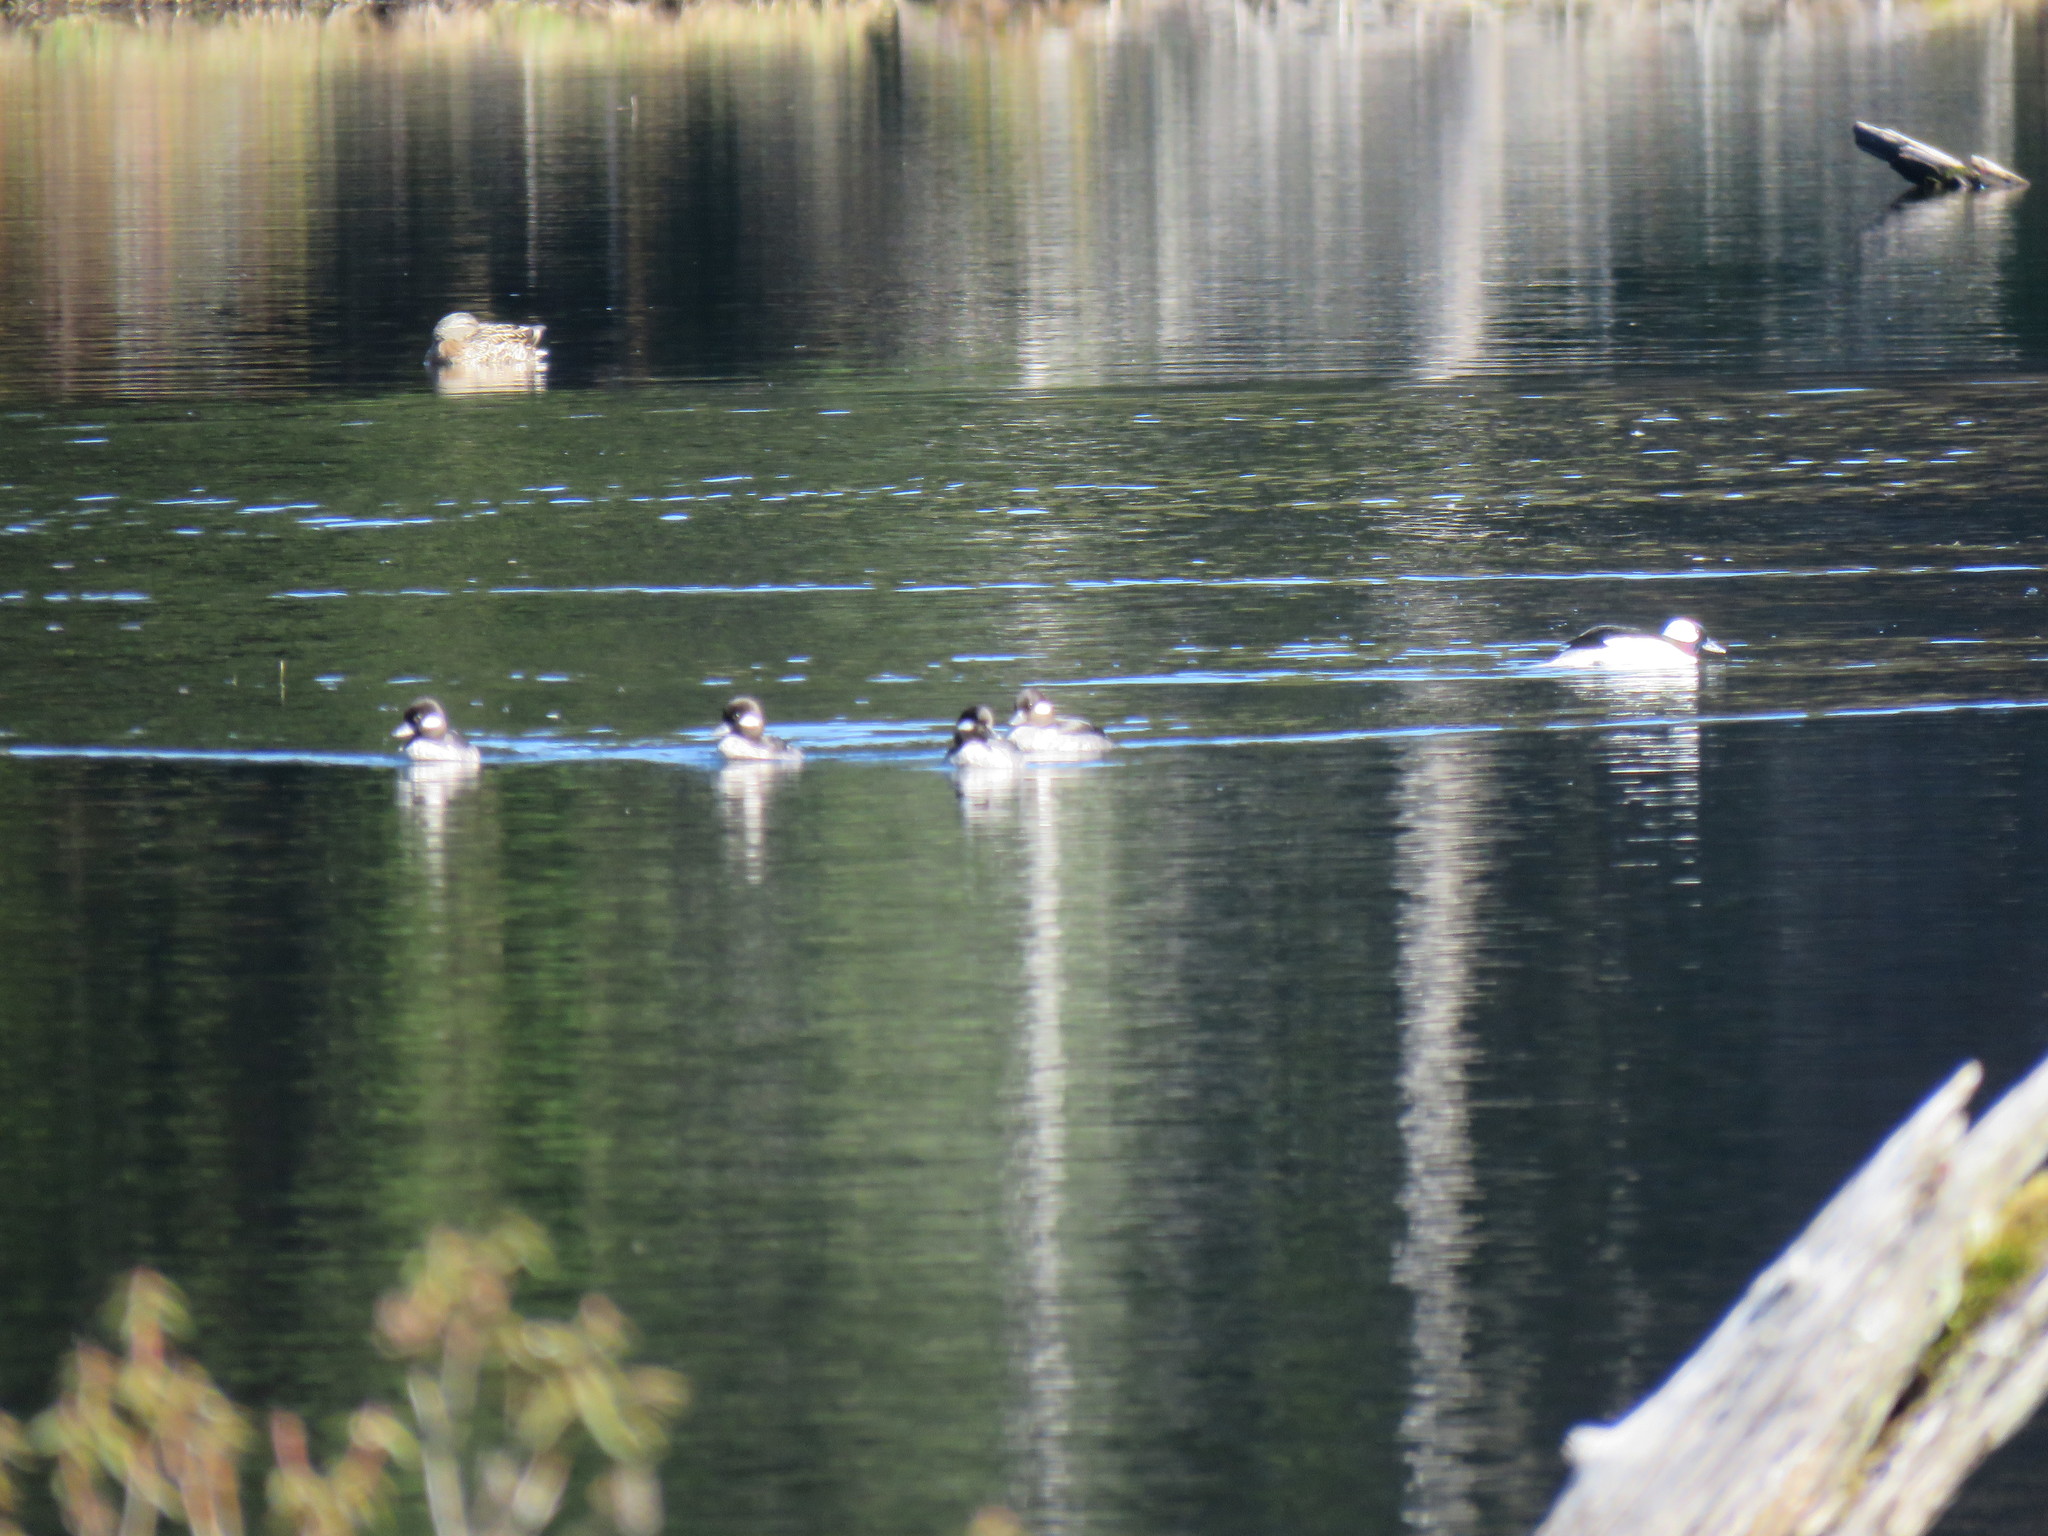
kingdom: Animalia
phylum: Chordata
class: Aves
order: Anseriformes
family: Anatidae
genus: Bucephala
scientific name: Bucephala albeola
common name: Bufflehead
